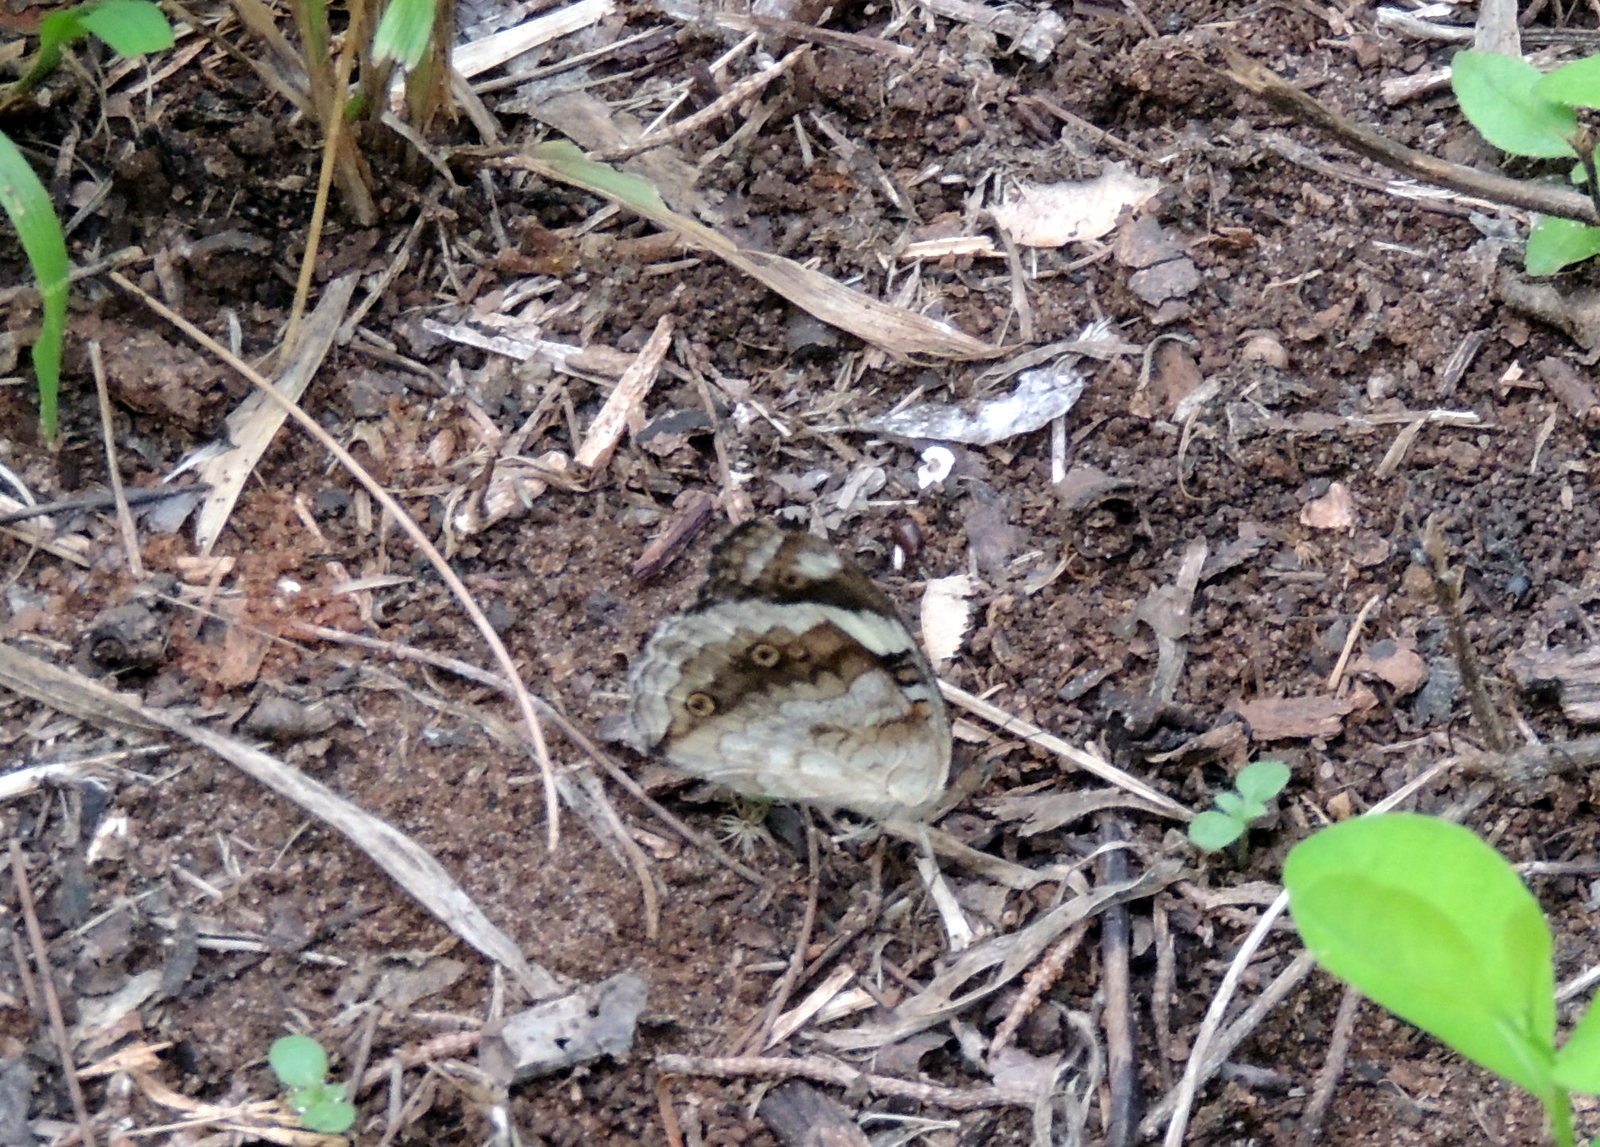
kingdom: Animalia
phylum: Arthropoda
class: Insecta
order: Lepidoptera
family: Nymphalidae
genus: Junonia
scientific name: Junonia oenone
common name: Dark blue pansy
